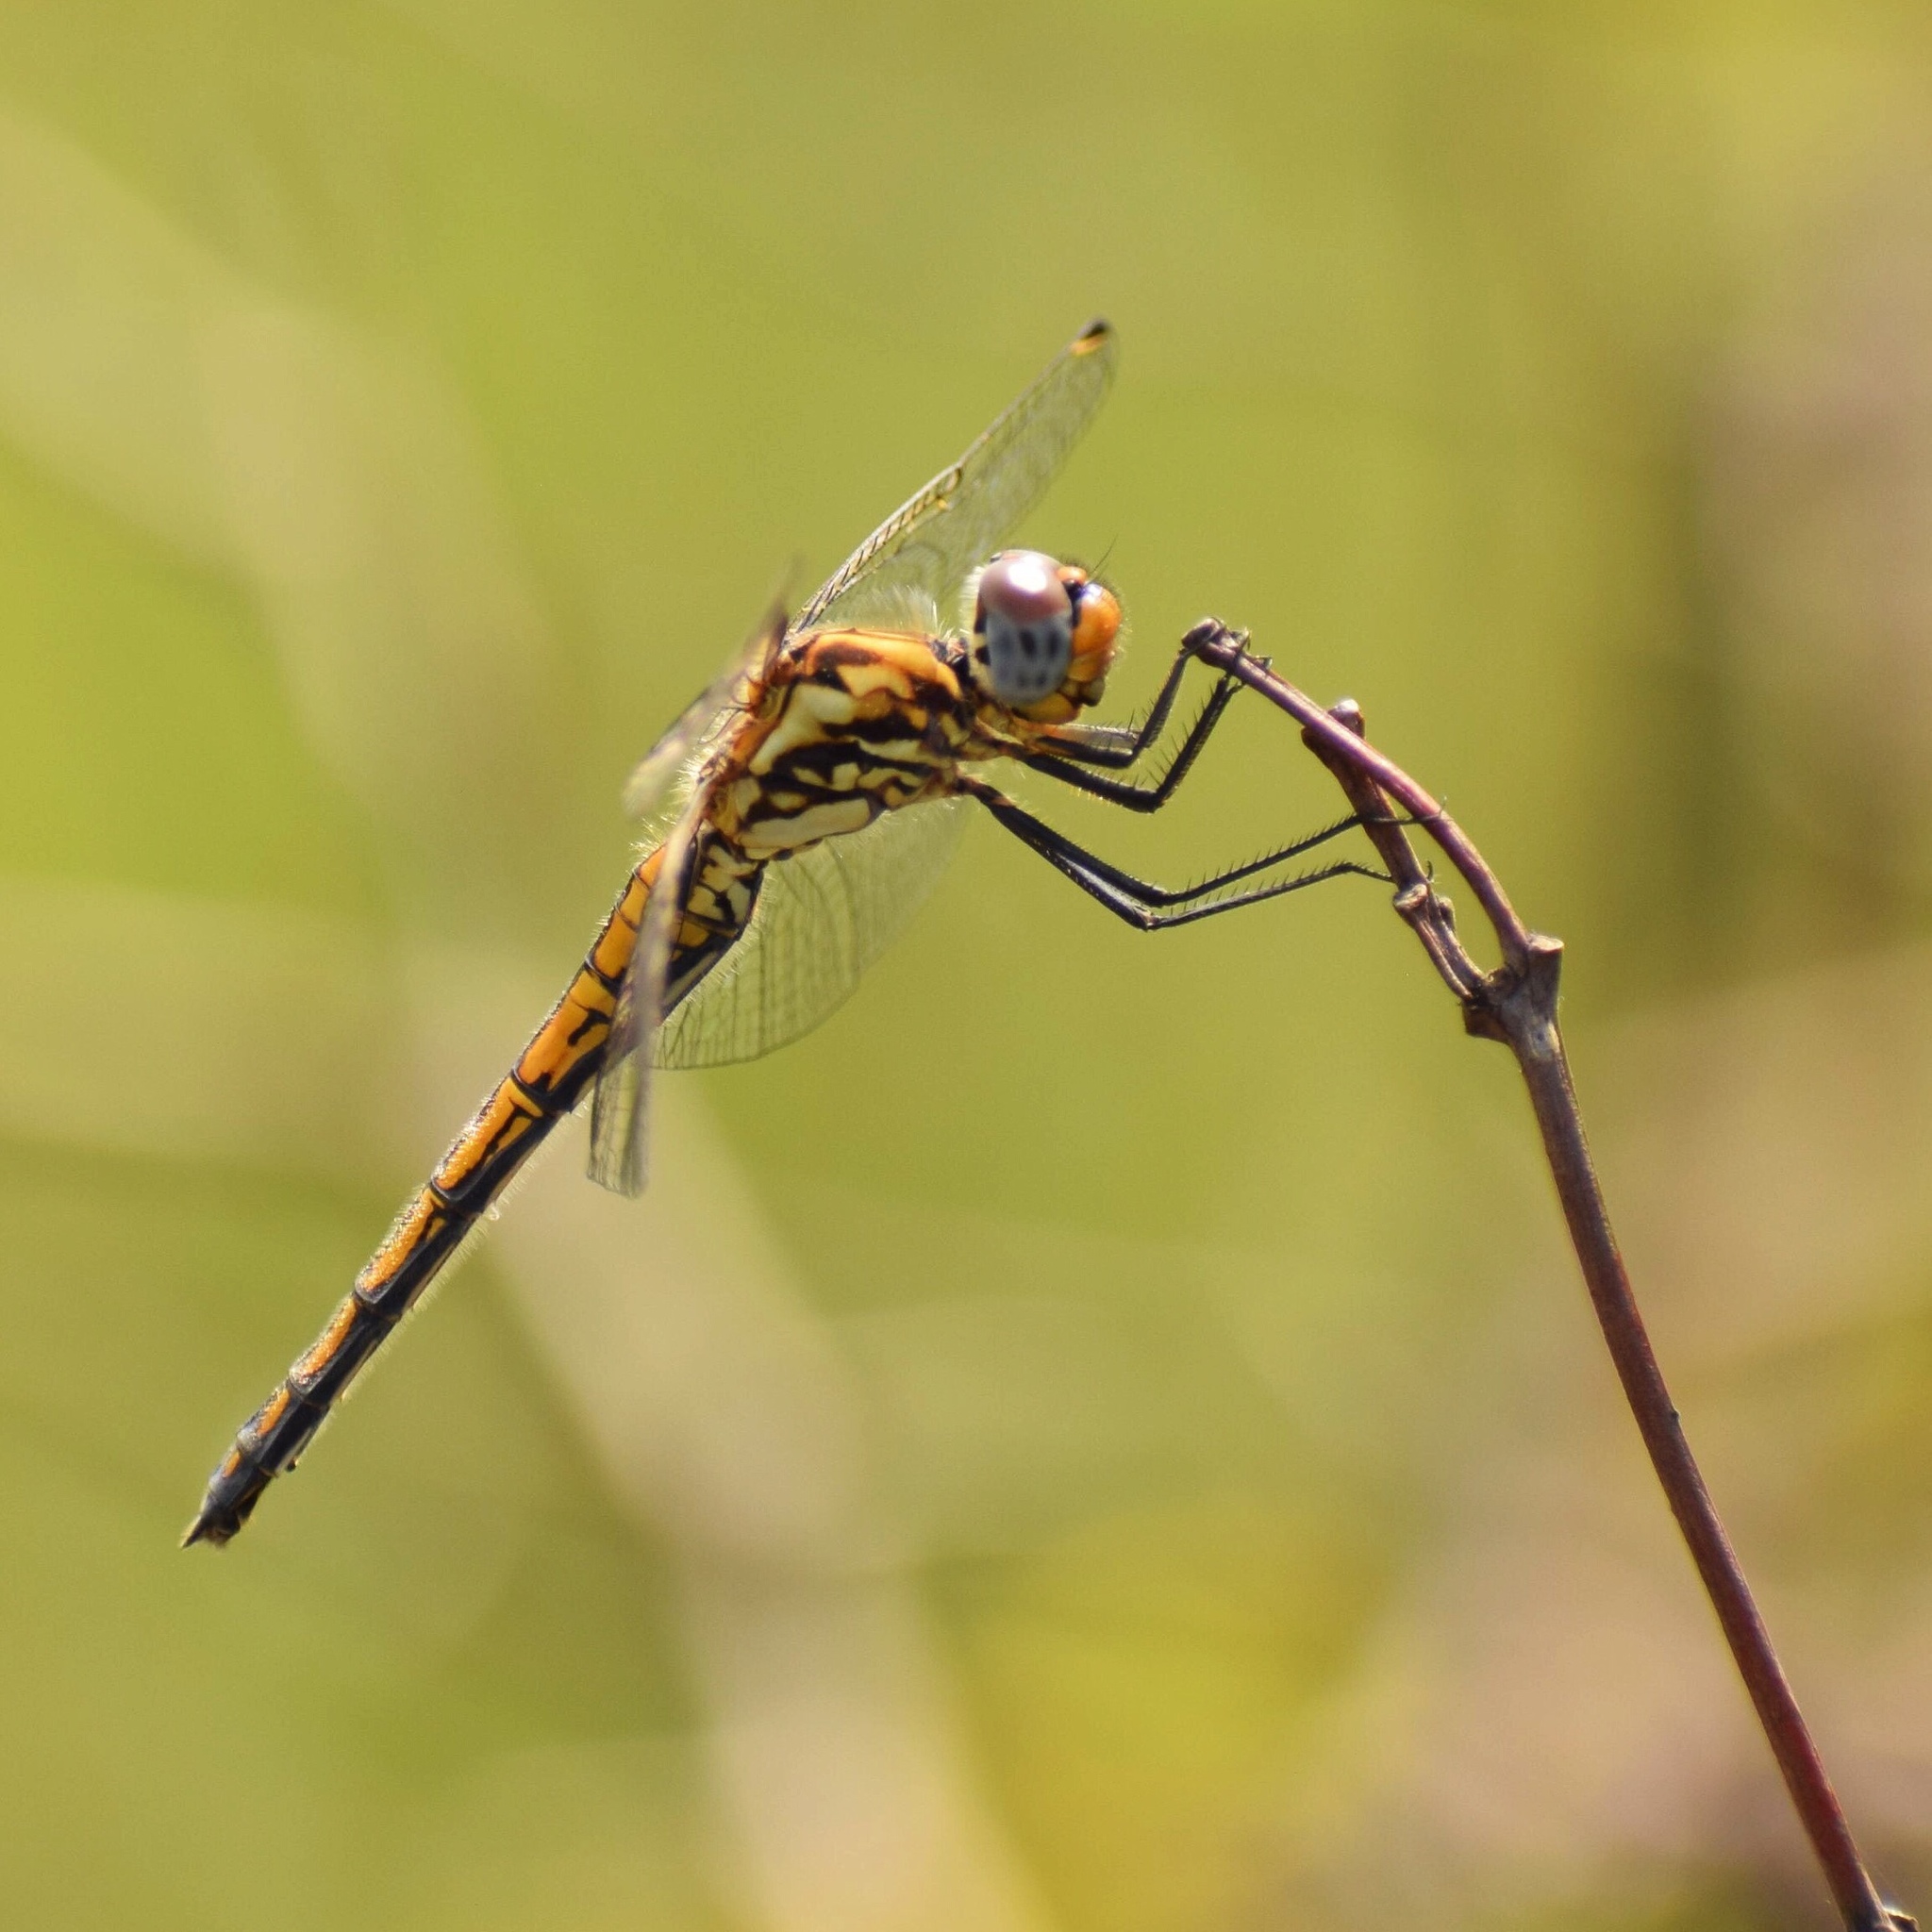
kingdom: Animalia
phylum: Arthropoda
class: Insecta
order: Odonata
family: Libellulidae
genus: Trithemis
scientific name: Trithemis furva
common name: Dark dropwing
